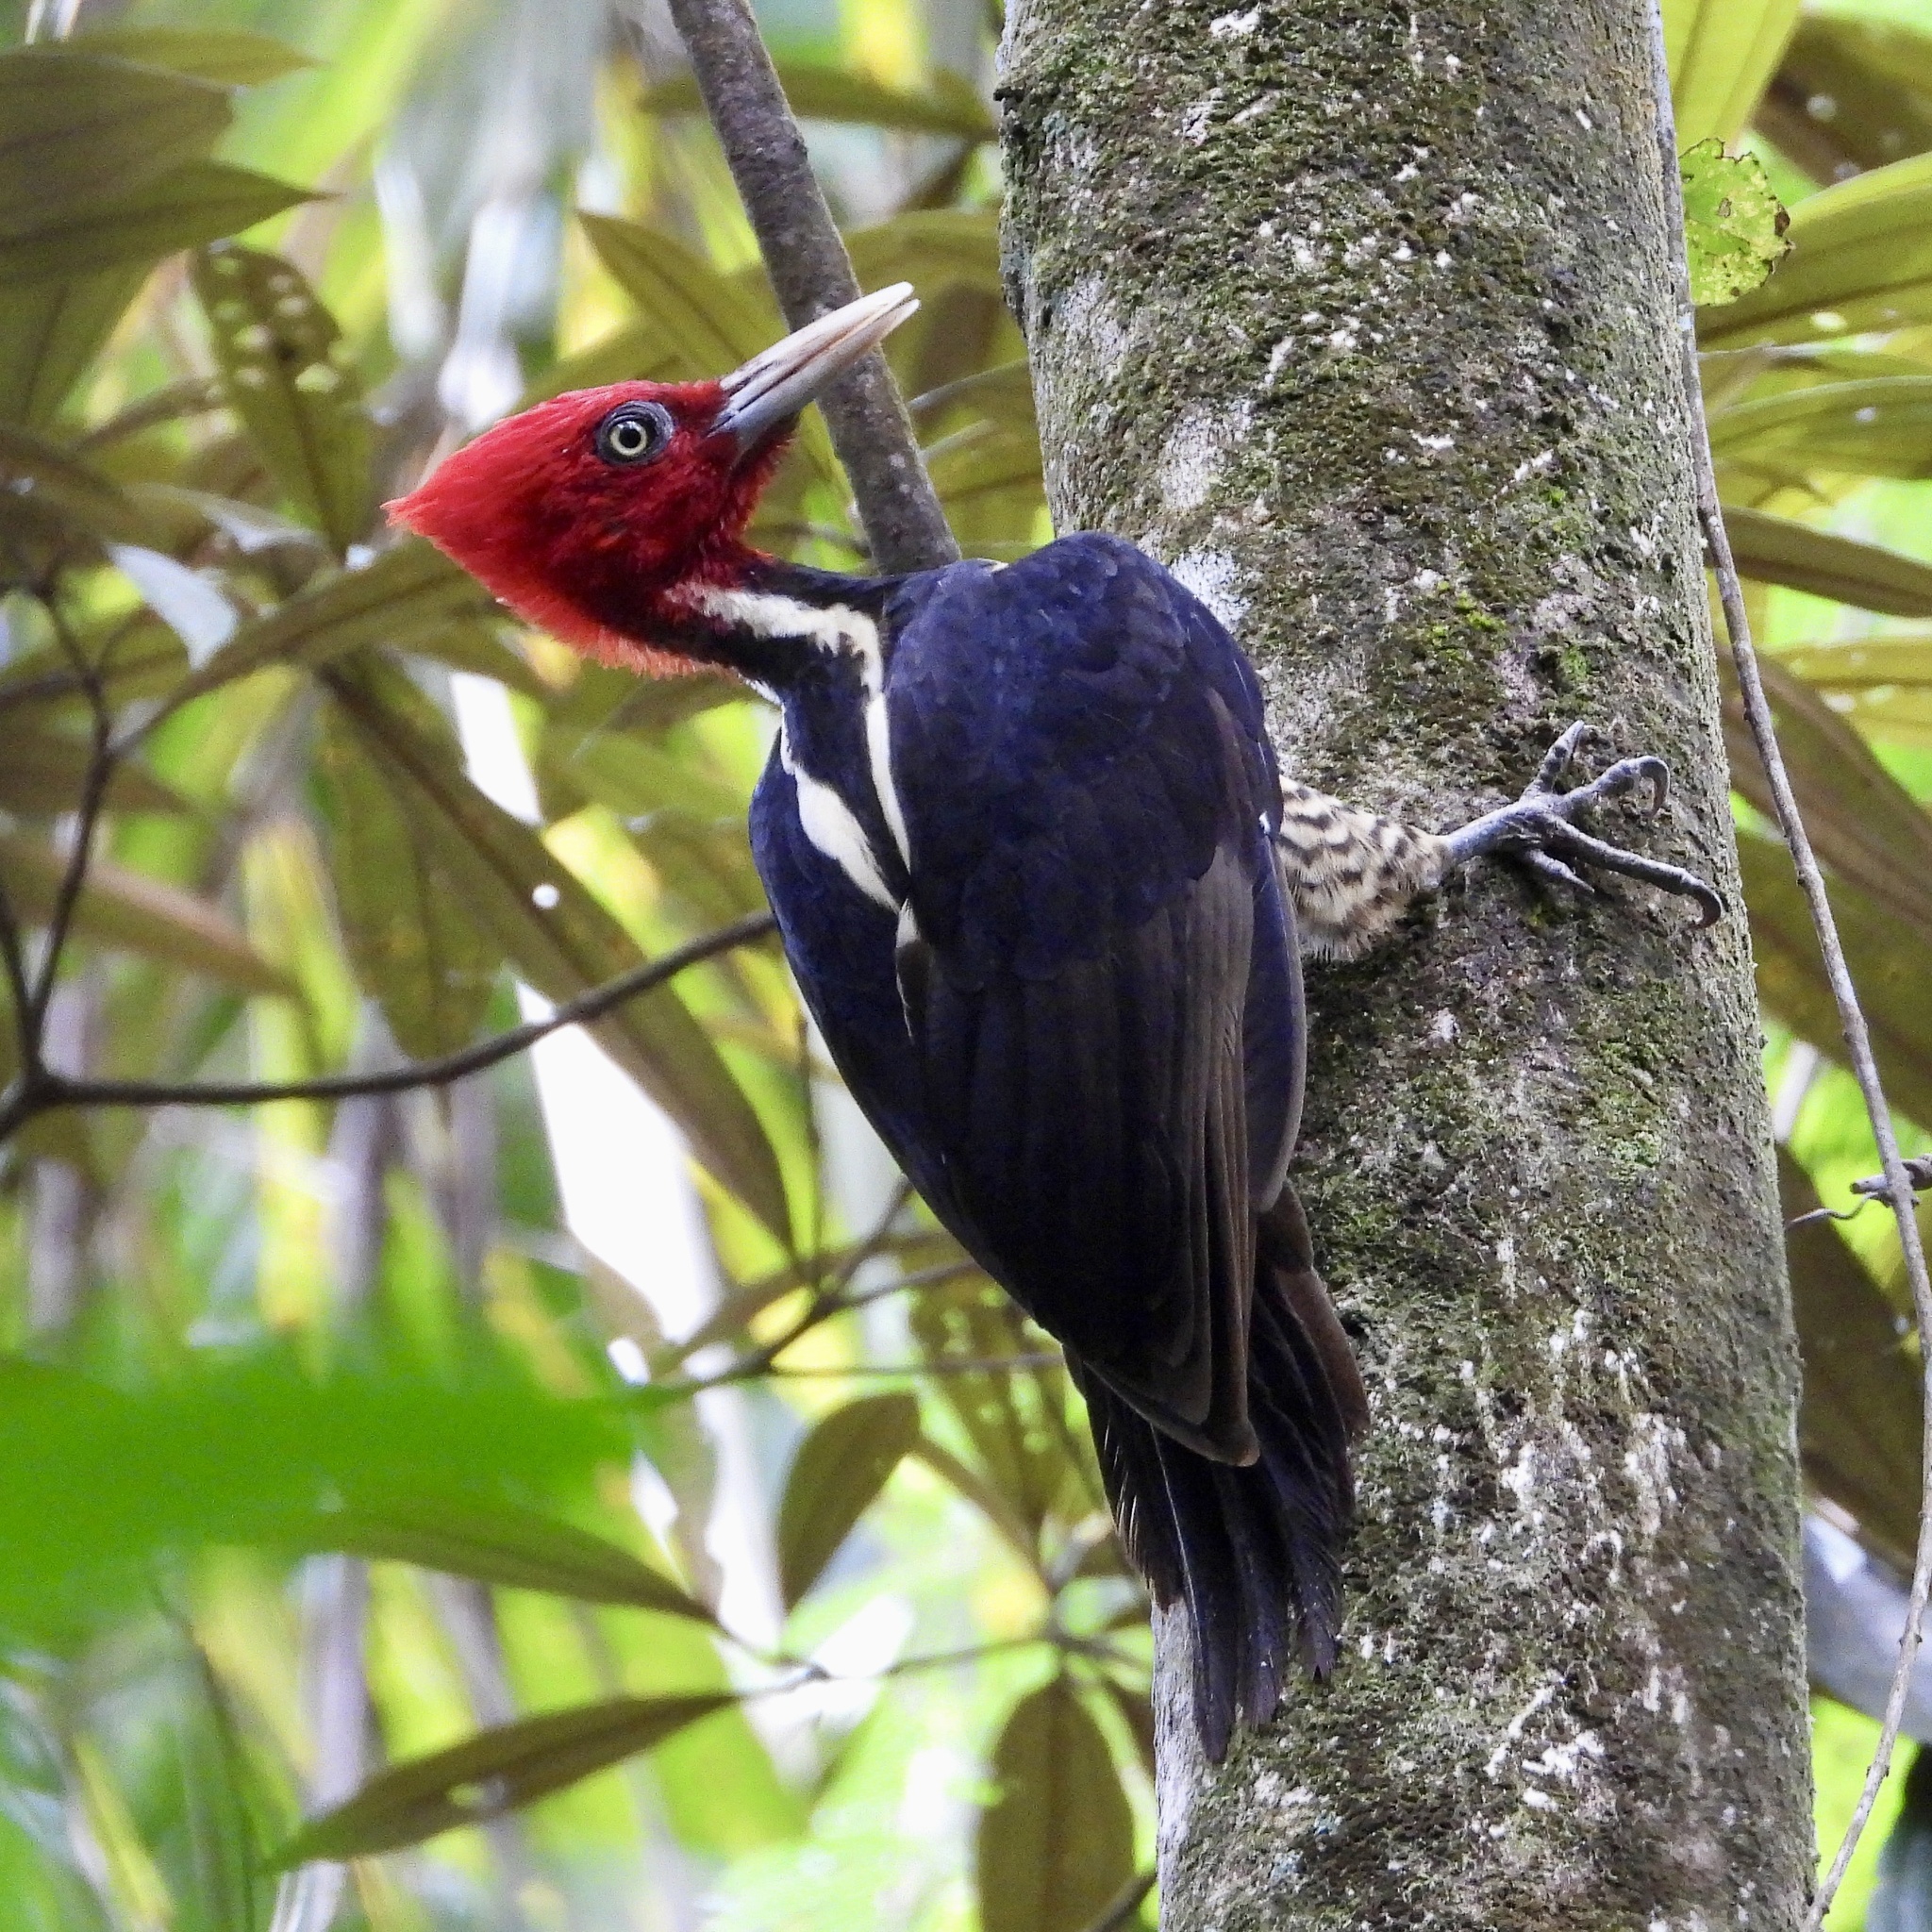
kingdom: Animalia
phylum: Chordata
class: Aves
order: Piciformes
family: Picidae
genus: Campephilus
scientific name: Campephilus guatemalensis
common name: Pale-billed woodpecker
